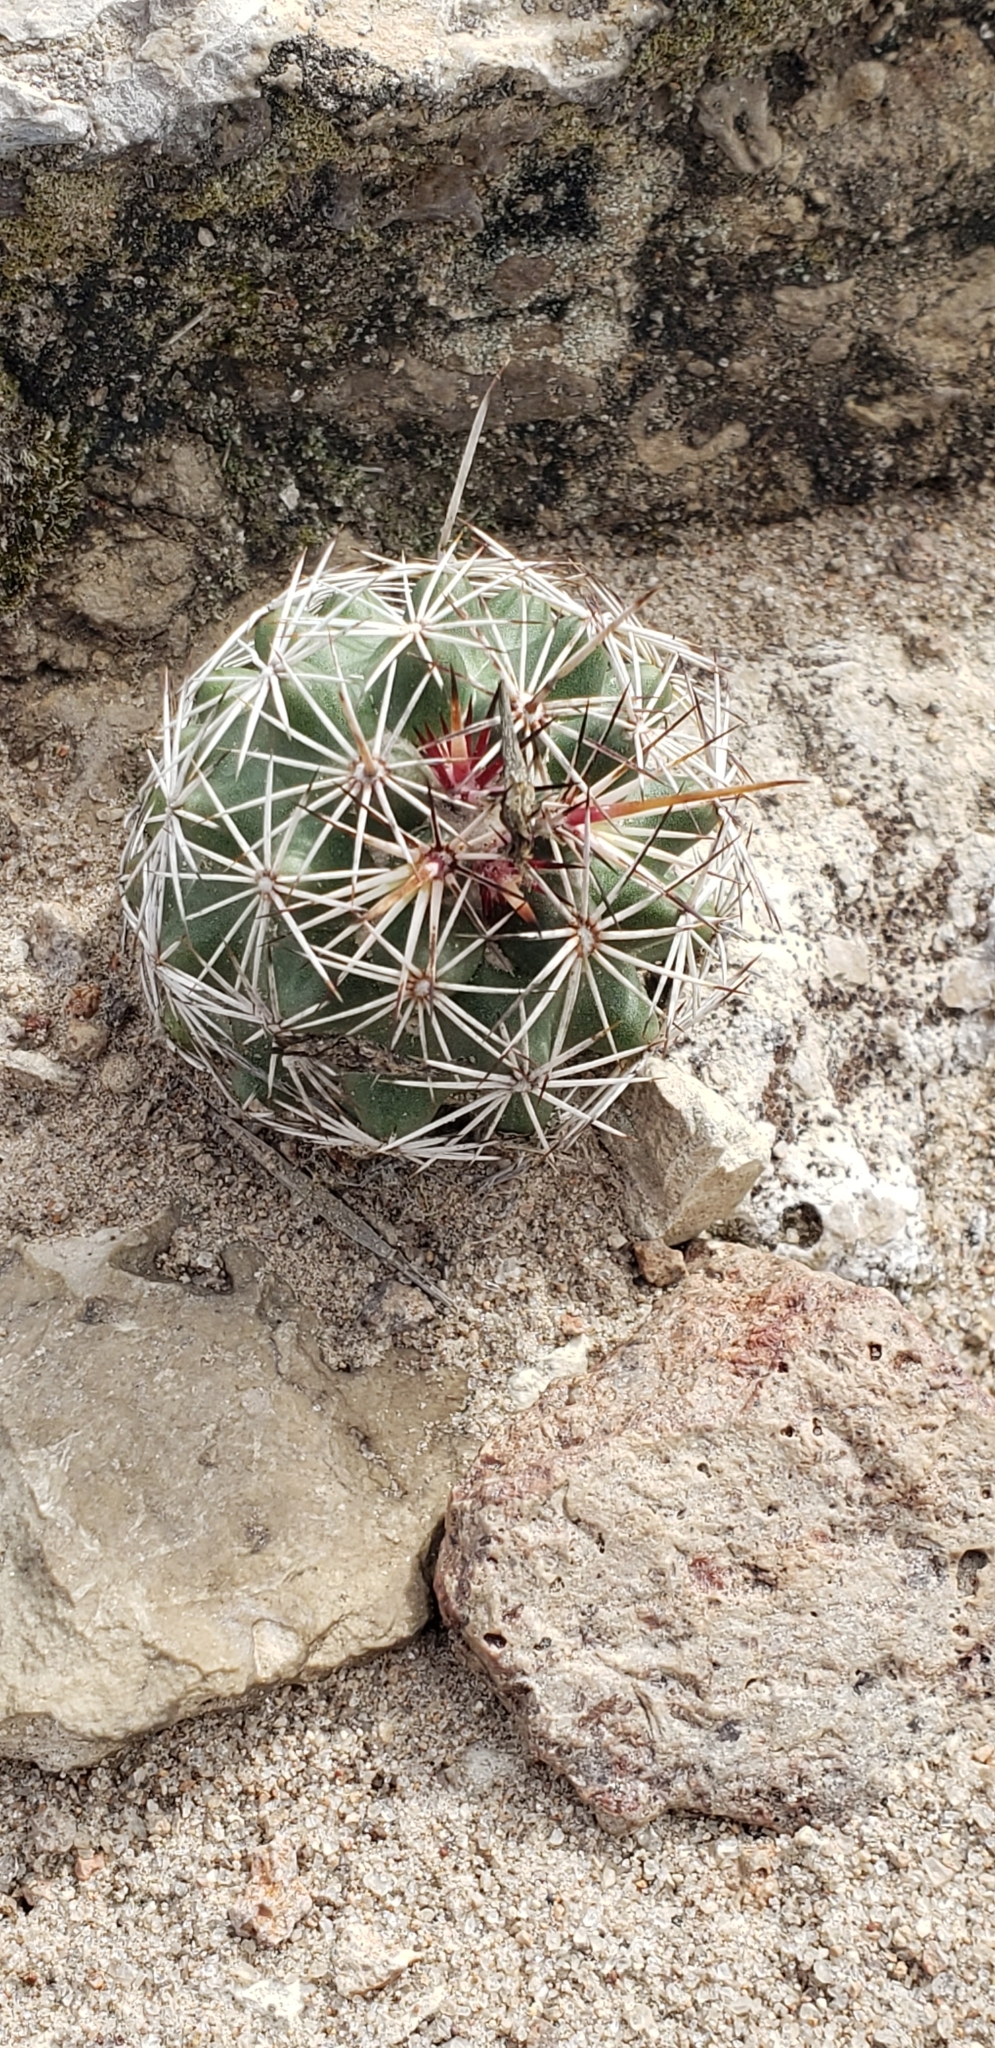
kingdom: Plantae
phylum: Tracheophyta
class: Magnoliopsida
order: Caryophyllales
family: Cactaceae
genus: Coryphantha
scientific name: Coryphantha clavata
